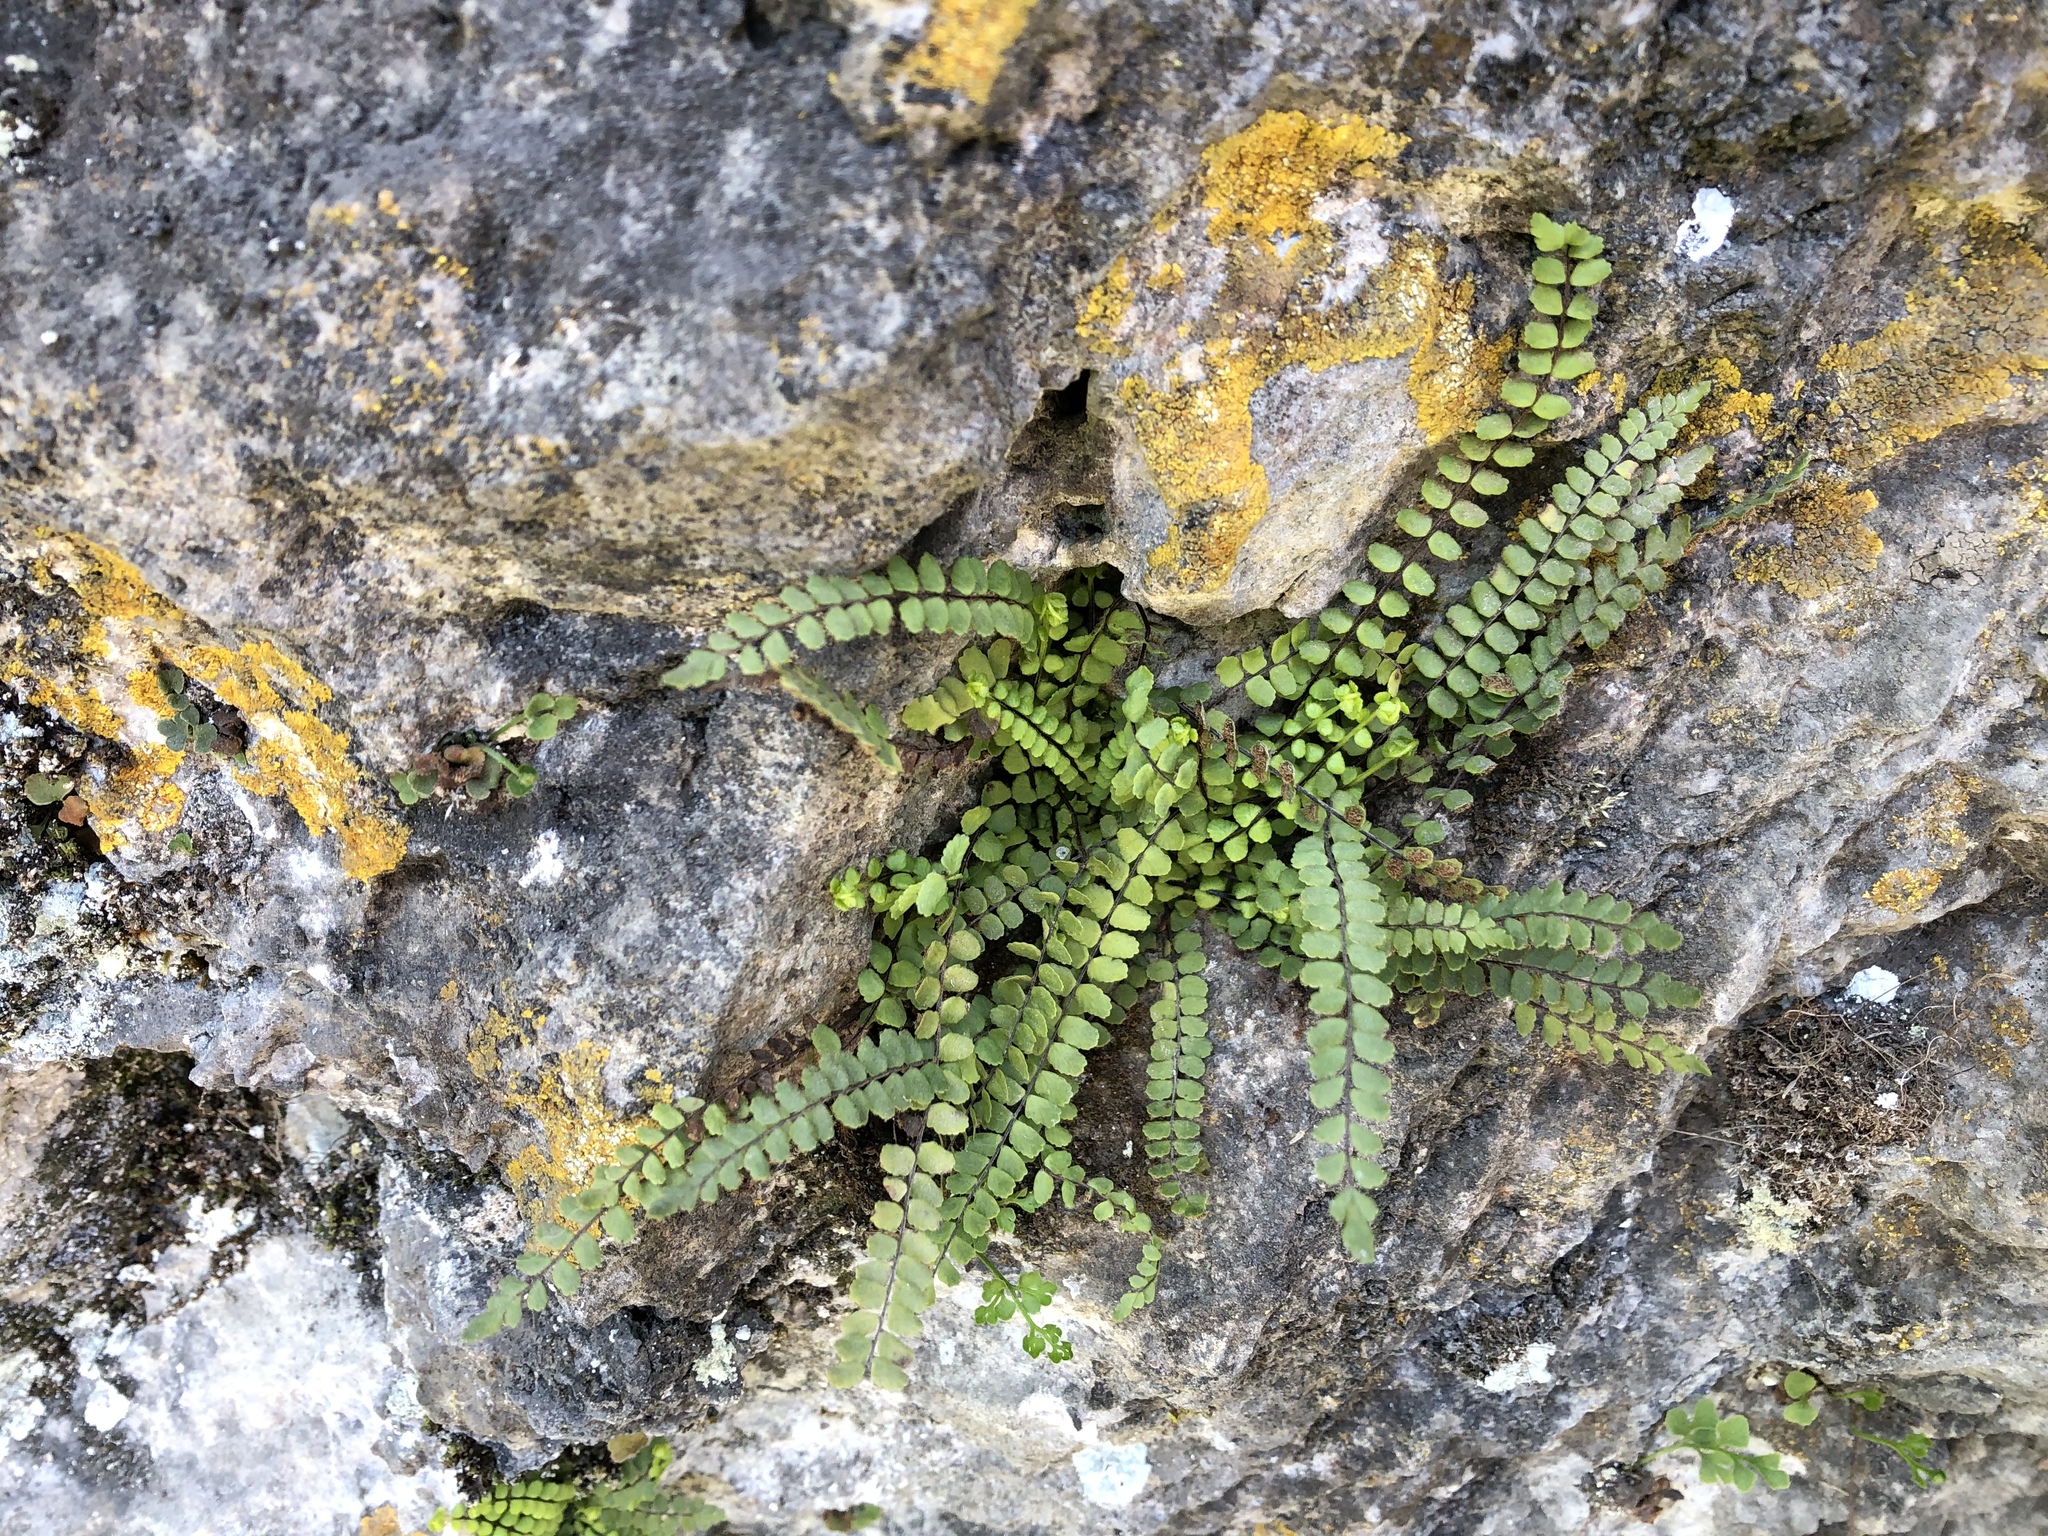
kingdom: Plantae
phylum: Tracheophyta
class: Polypodiopsida
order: Polypodiales
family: Aspleniaceae
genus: Asplenium
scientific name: Asplenium trichomanes
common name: Maidenhair spleenwort
